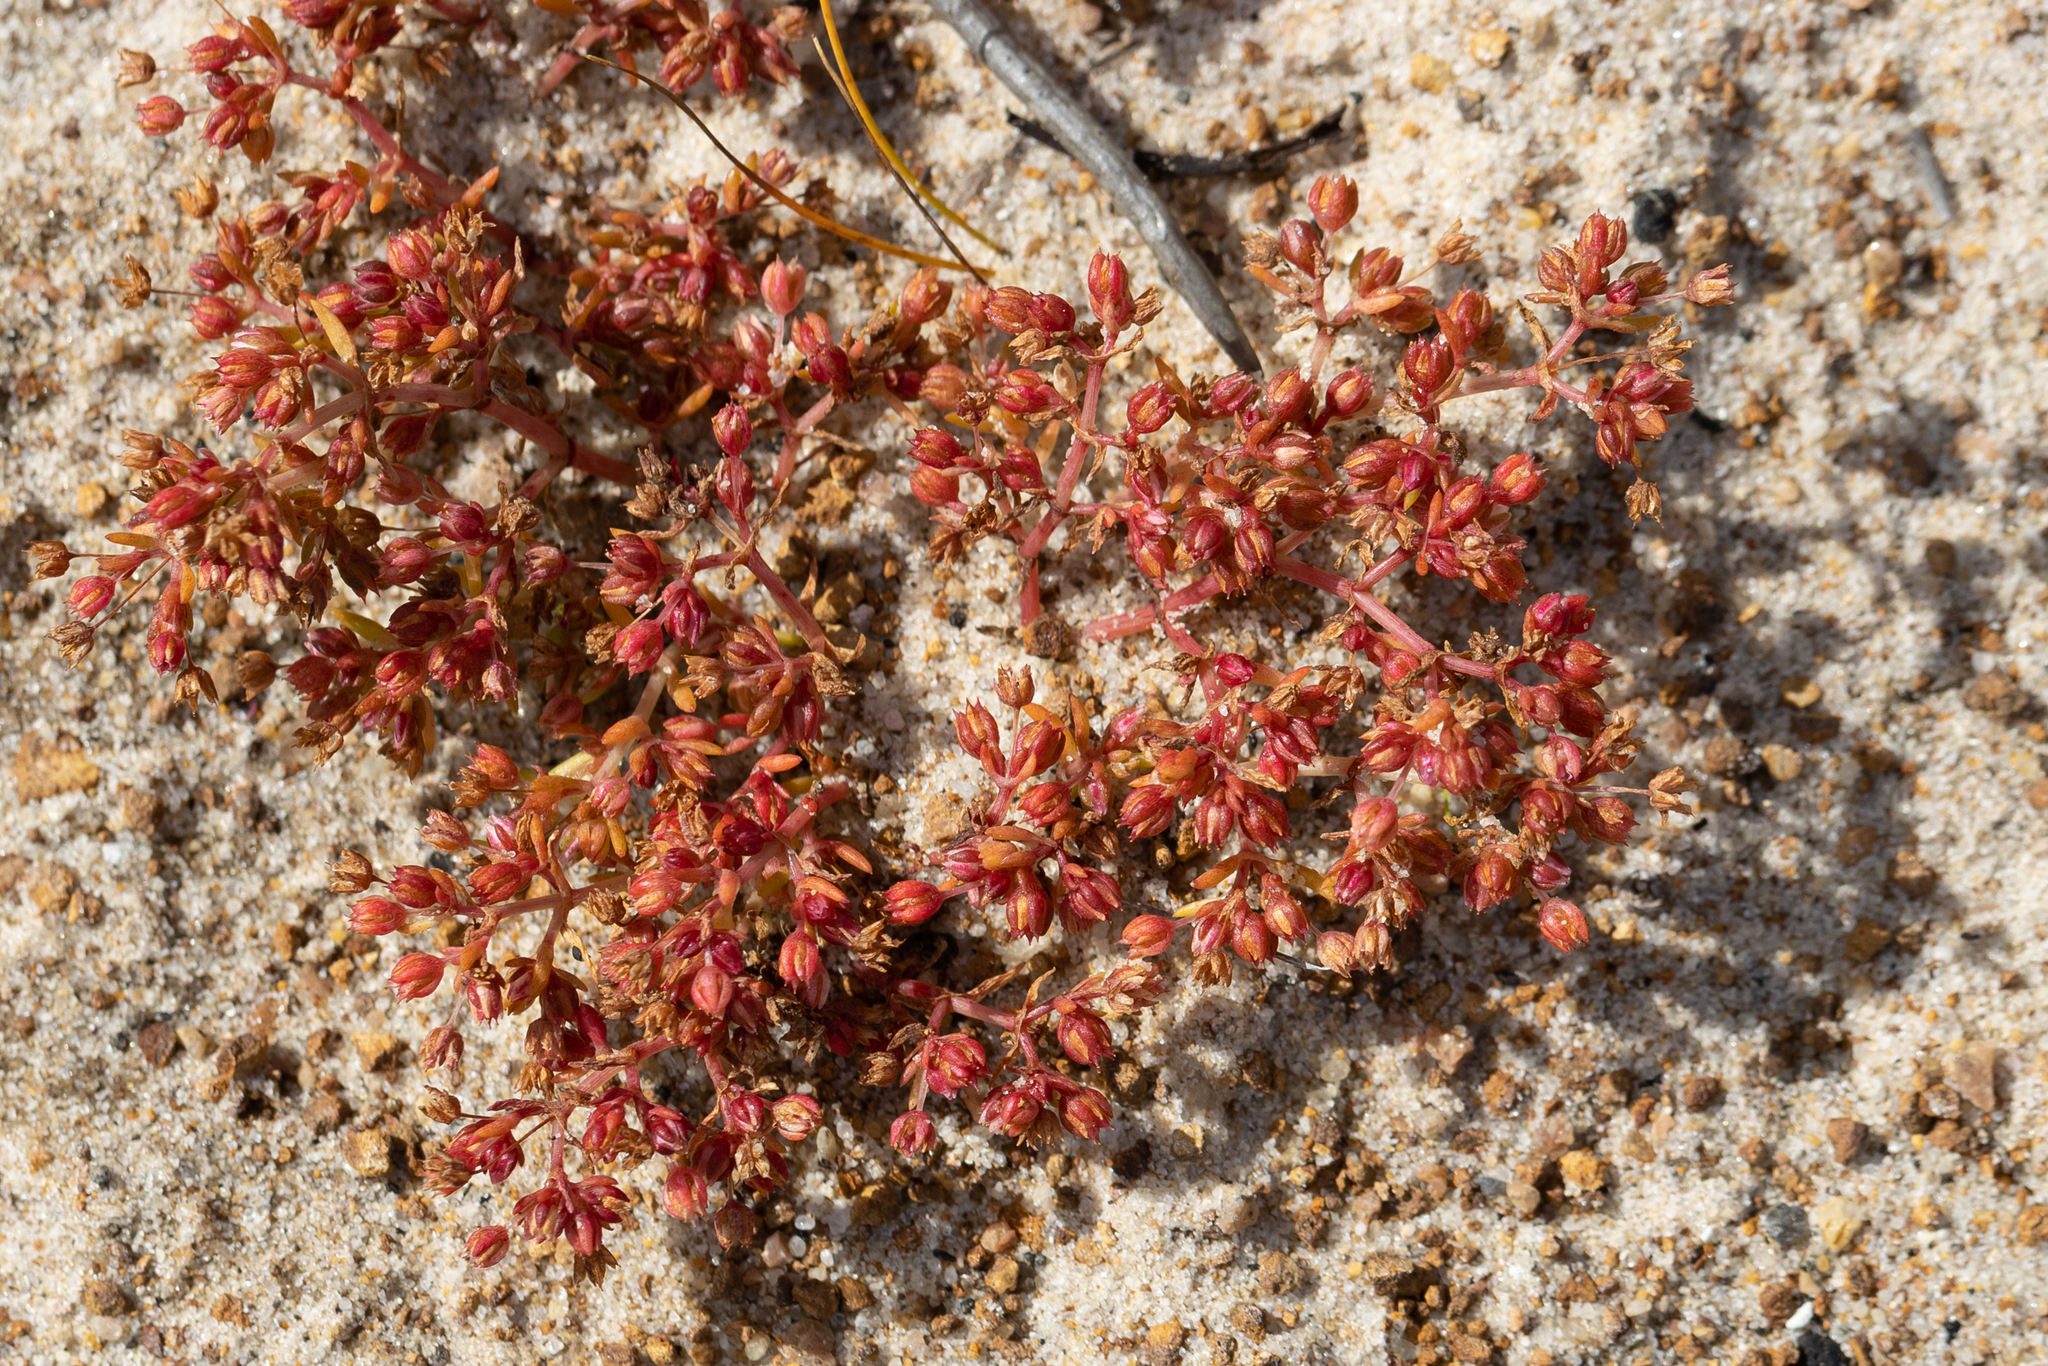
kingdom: Plantae
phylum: Tracheophyta
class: Magnoliopsida
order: Saxifragales
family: Crassulaceae
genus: Crassula
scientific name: Crassula decumbens
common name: Scilly pigmyweed
